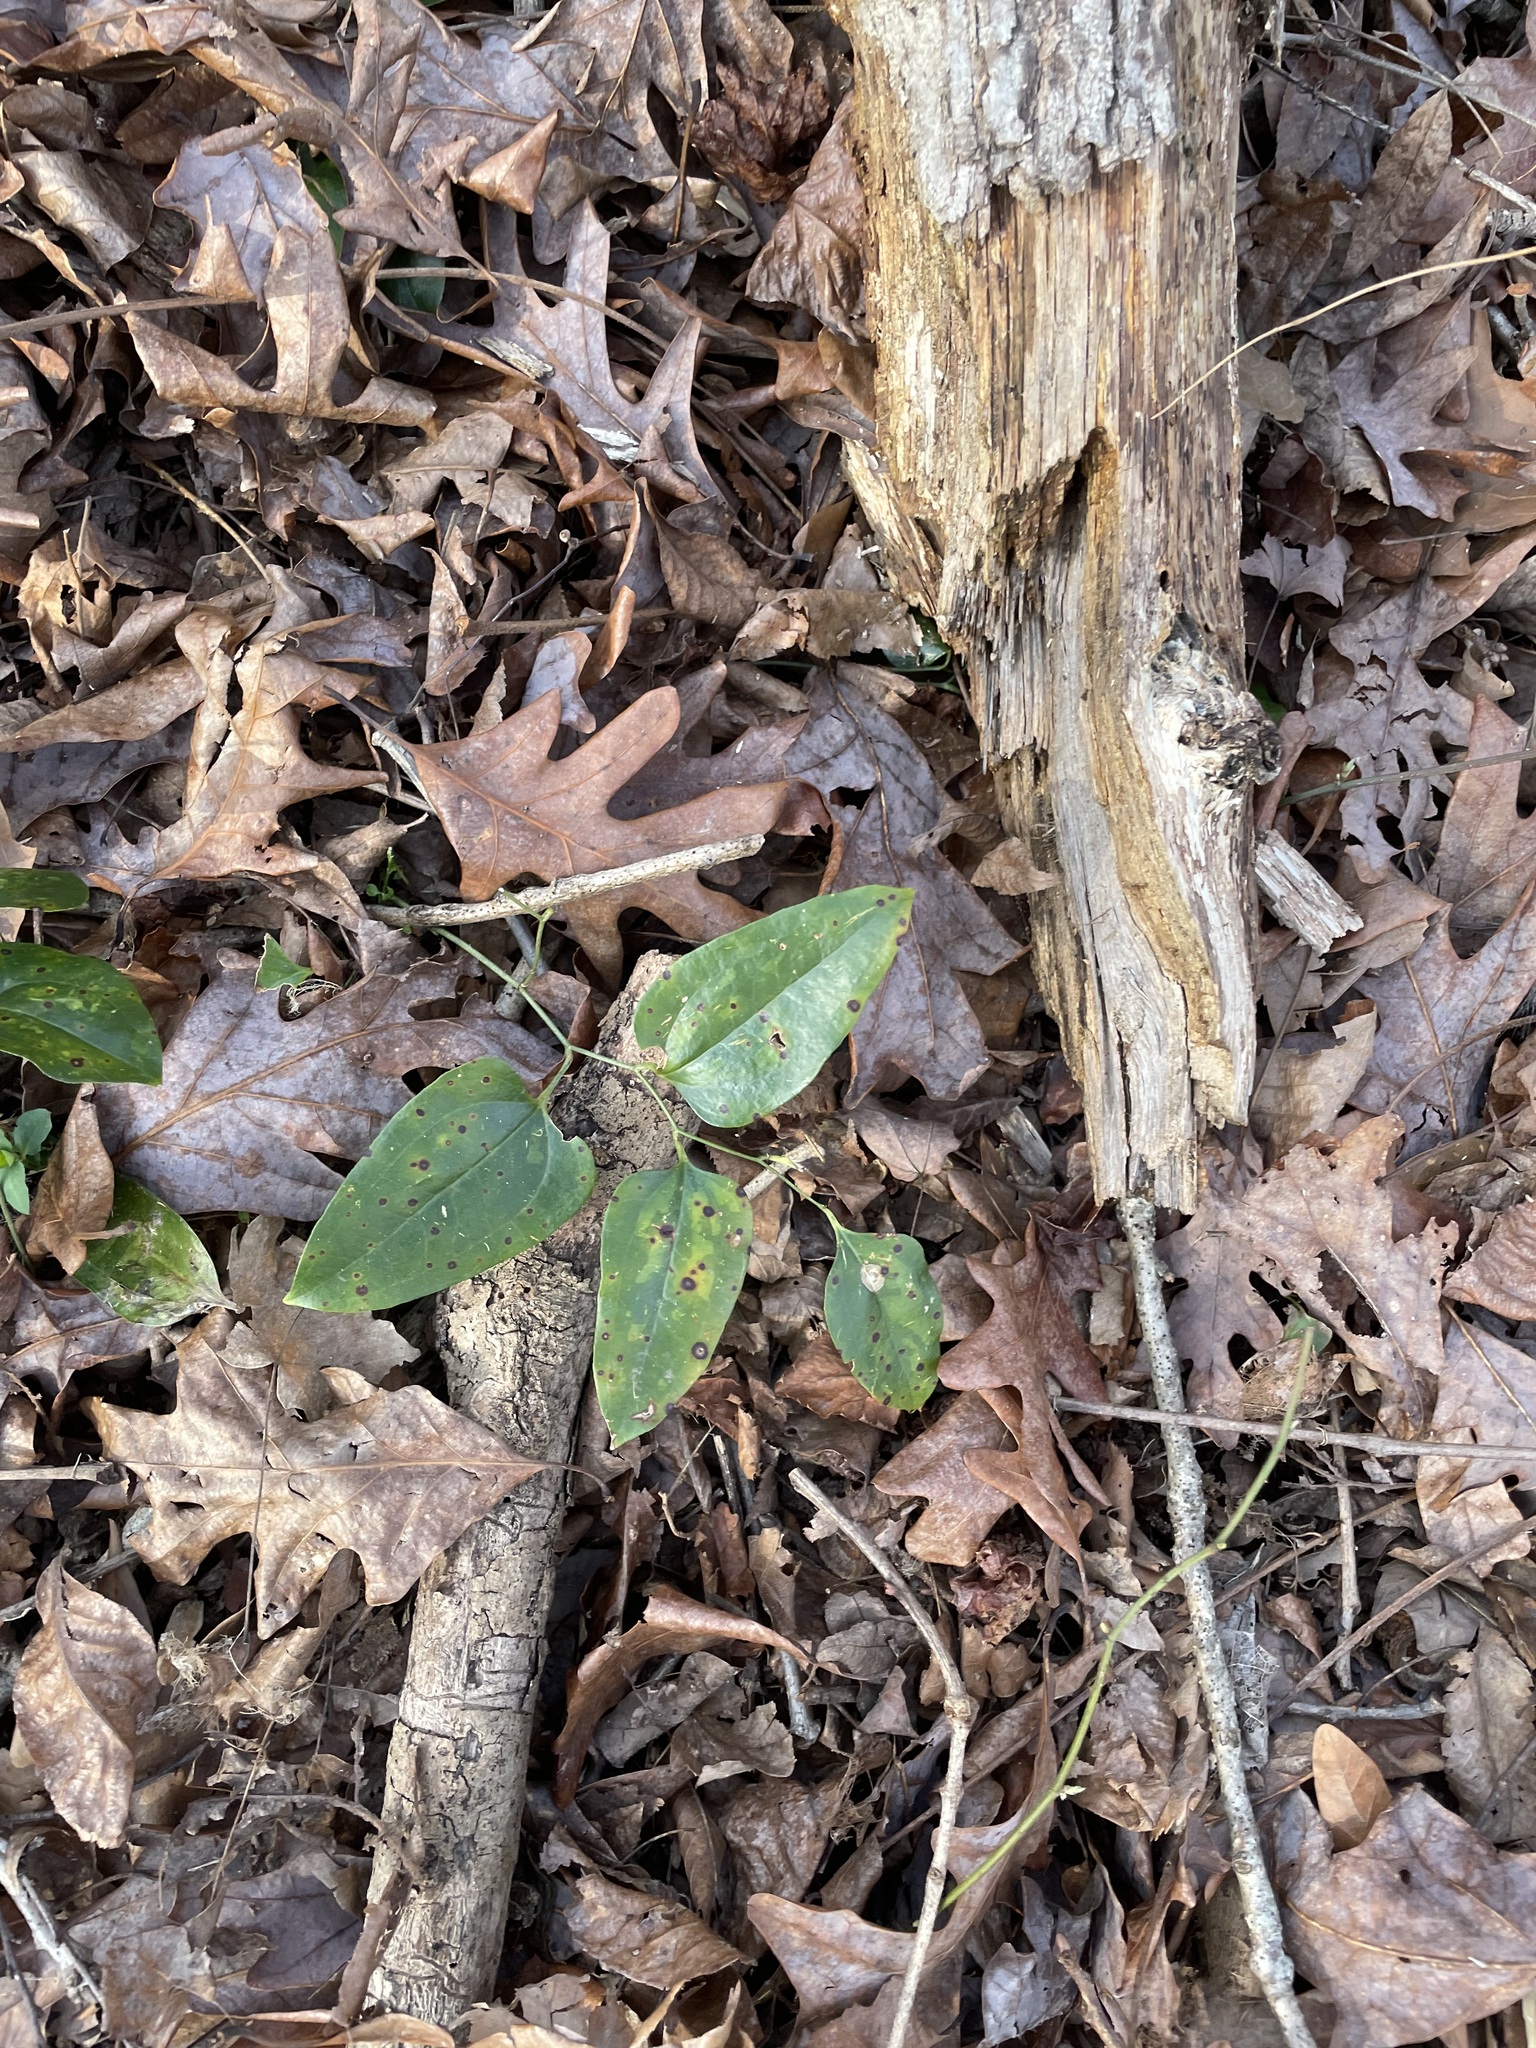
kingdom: Plantae
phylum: Tracheophyta
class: Liliopsida
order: Liliales
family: Smilacaceae
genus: Smilax
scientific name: Smilax maritima
